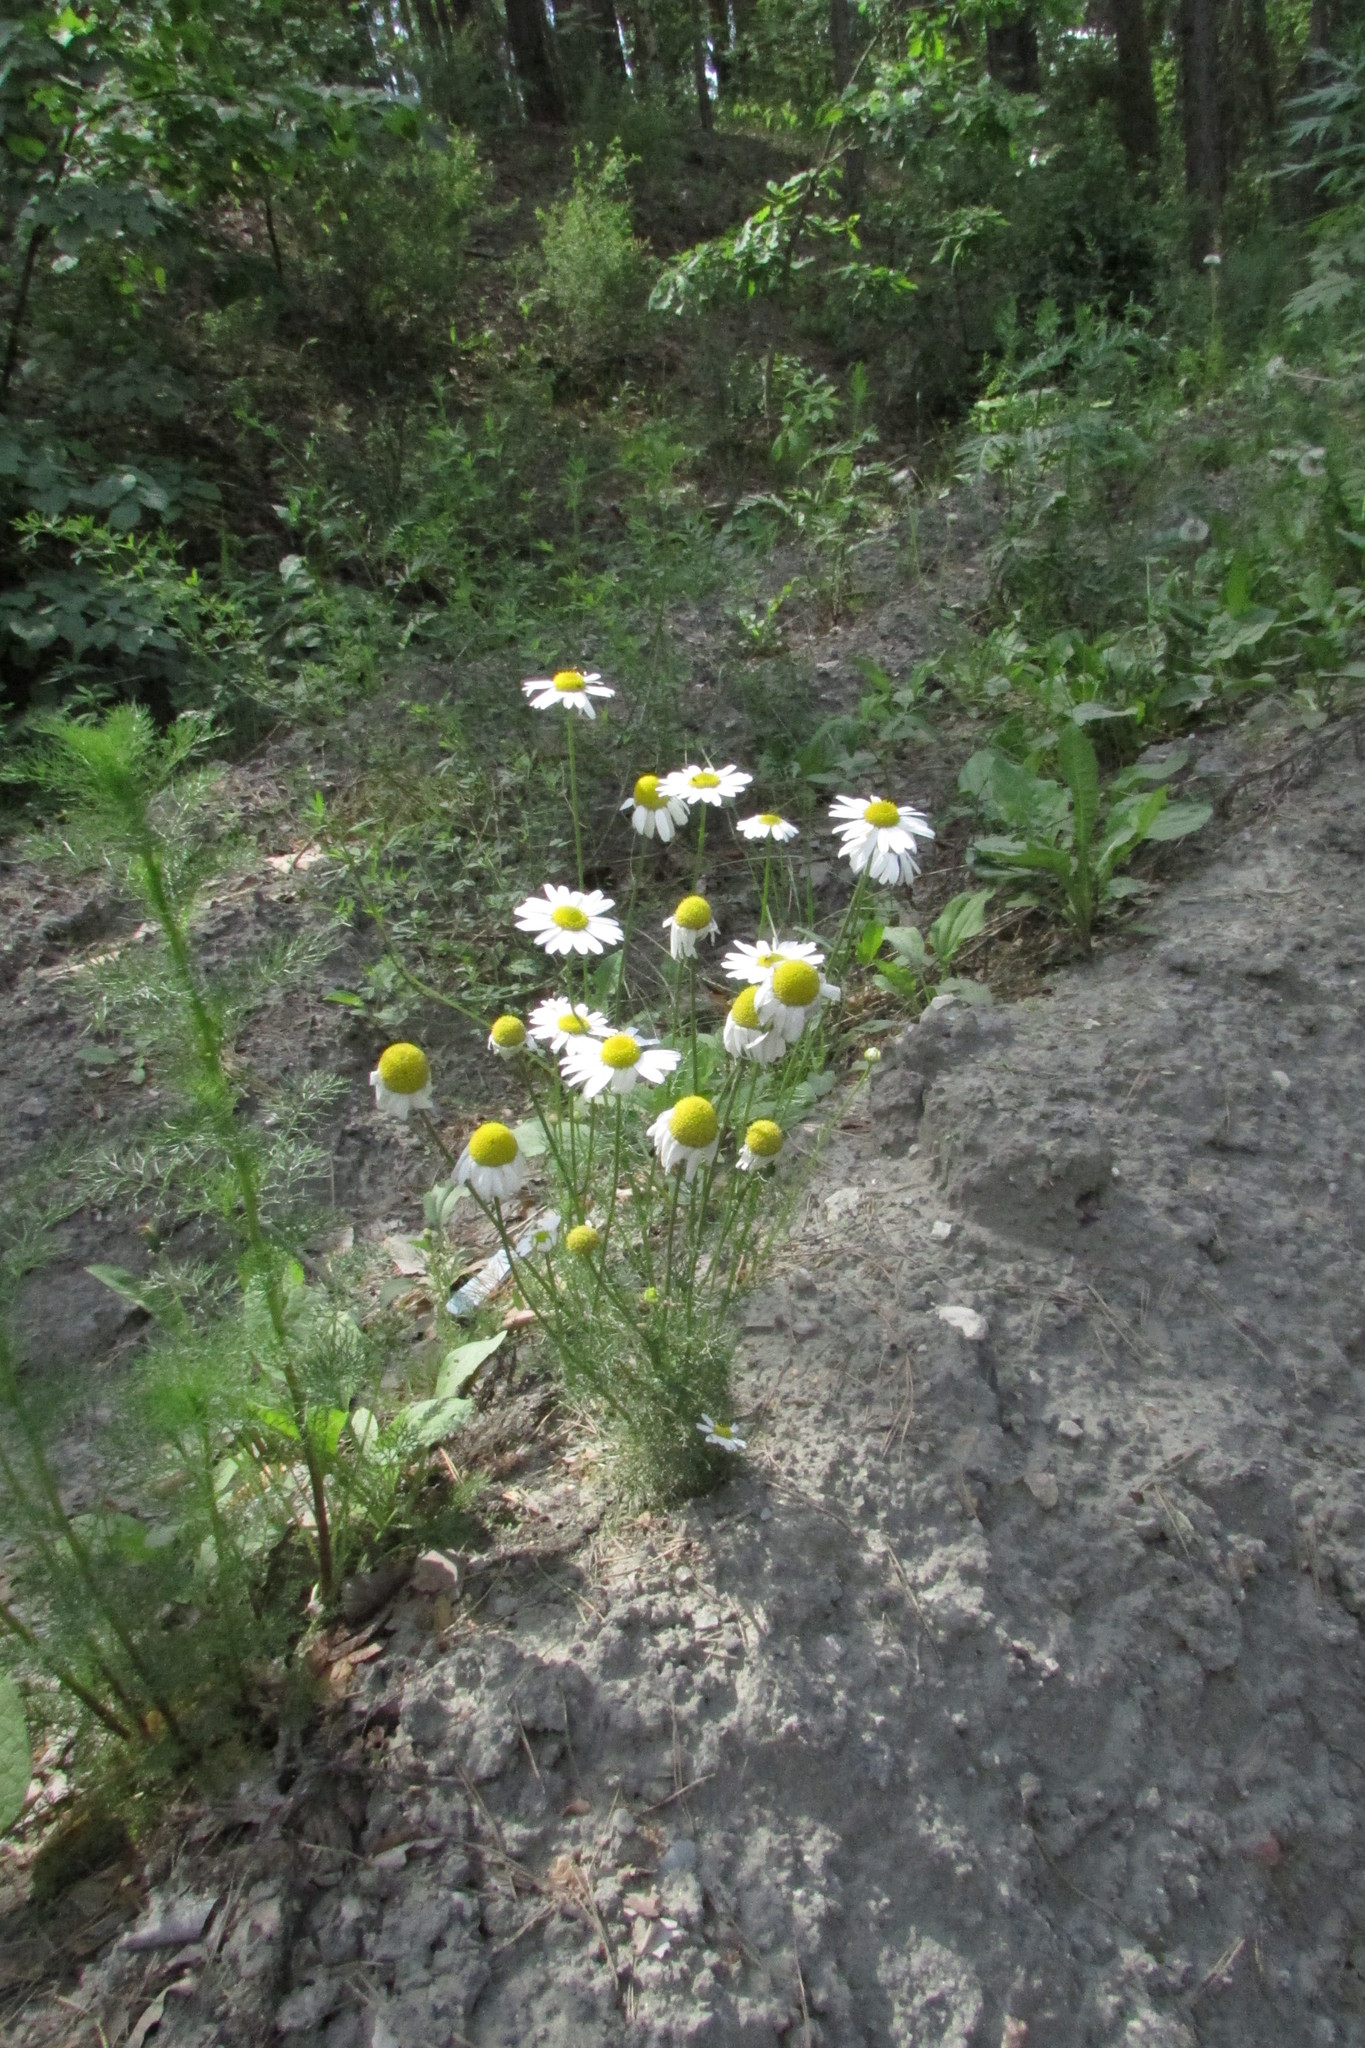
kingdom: Plantae
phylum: Tracheophyta
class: Magnoliopsida
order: Asterales
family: Asteraceae
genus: Tripleurospermum
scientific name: Tripleurospermum inodorum
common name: Scentless mayweed
